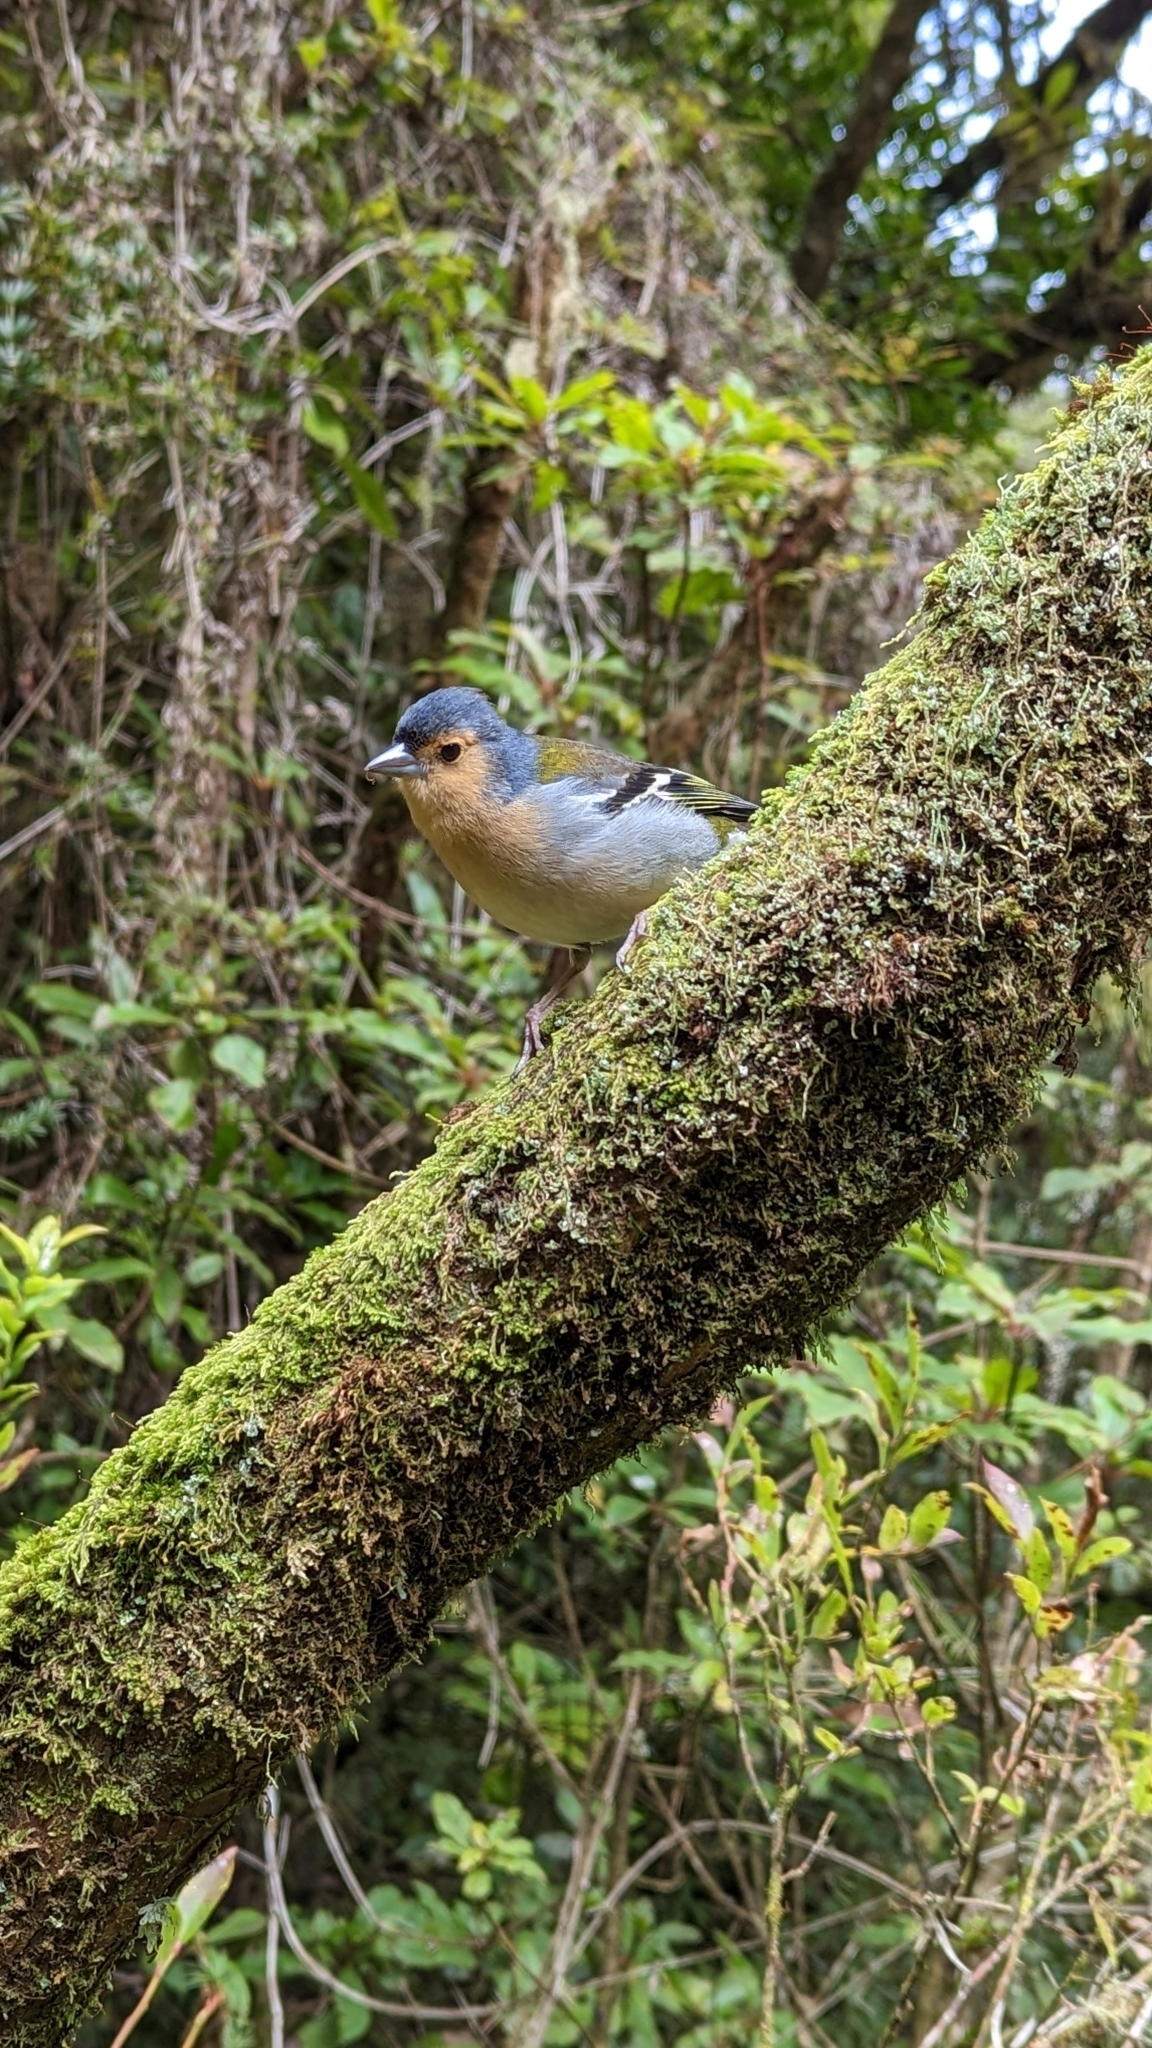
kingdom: Animalia
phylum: Chordata
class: Aves
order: Passeriformes
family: Fringillidae
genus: Fringilla
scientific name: Fringilla maderensis
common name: Madeira chaffinch
